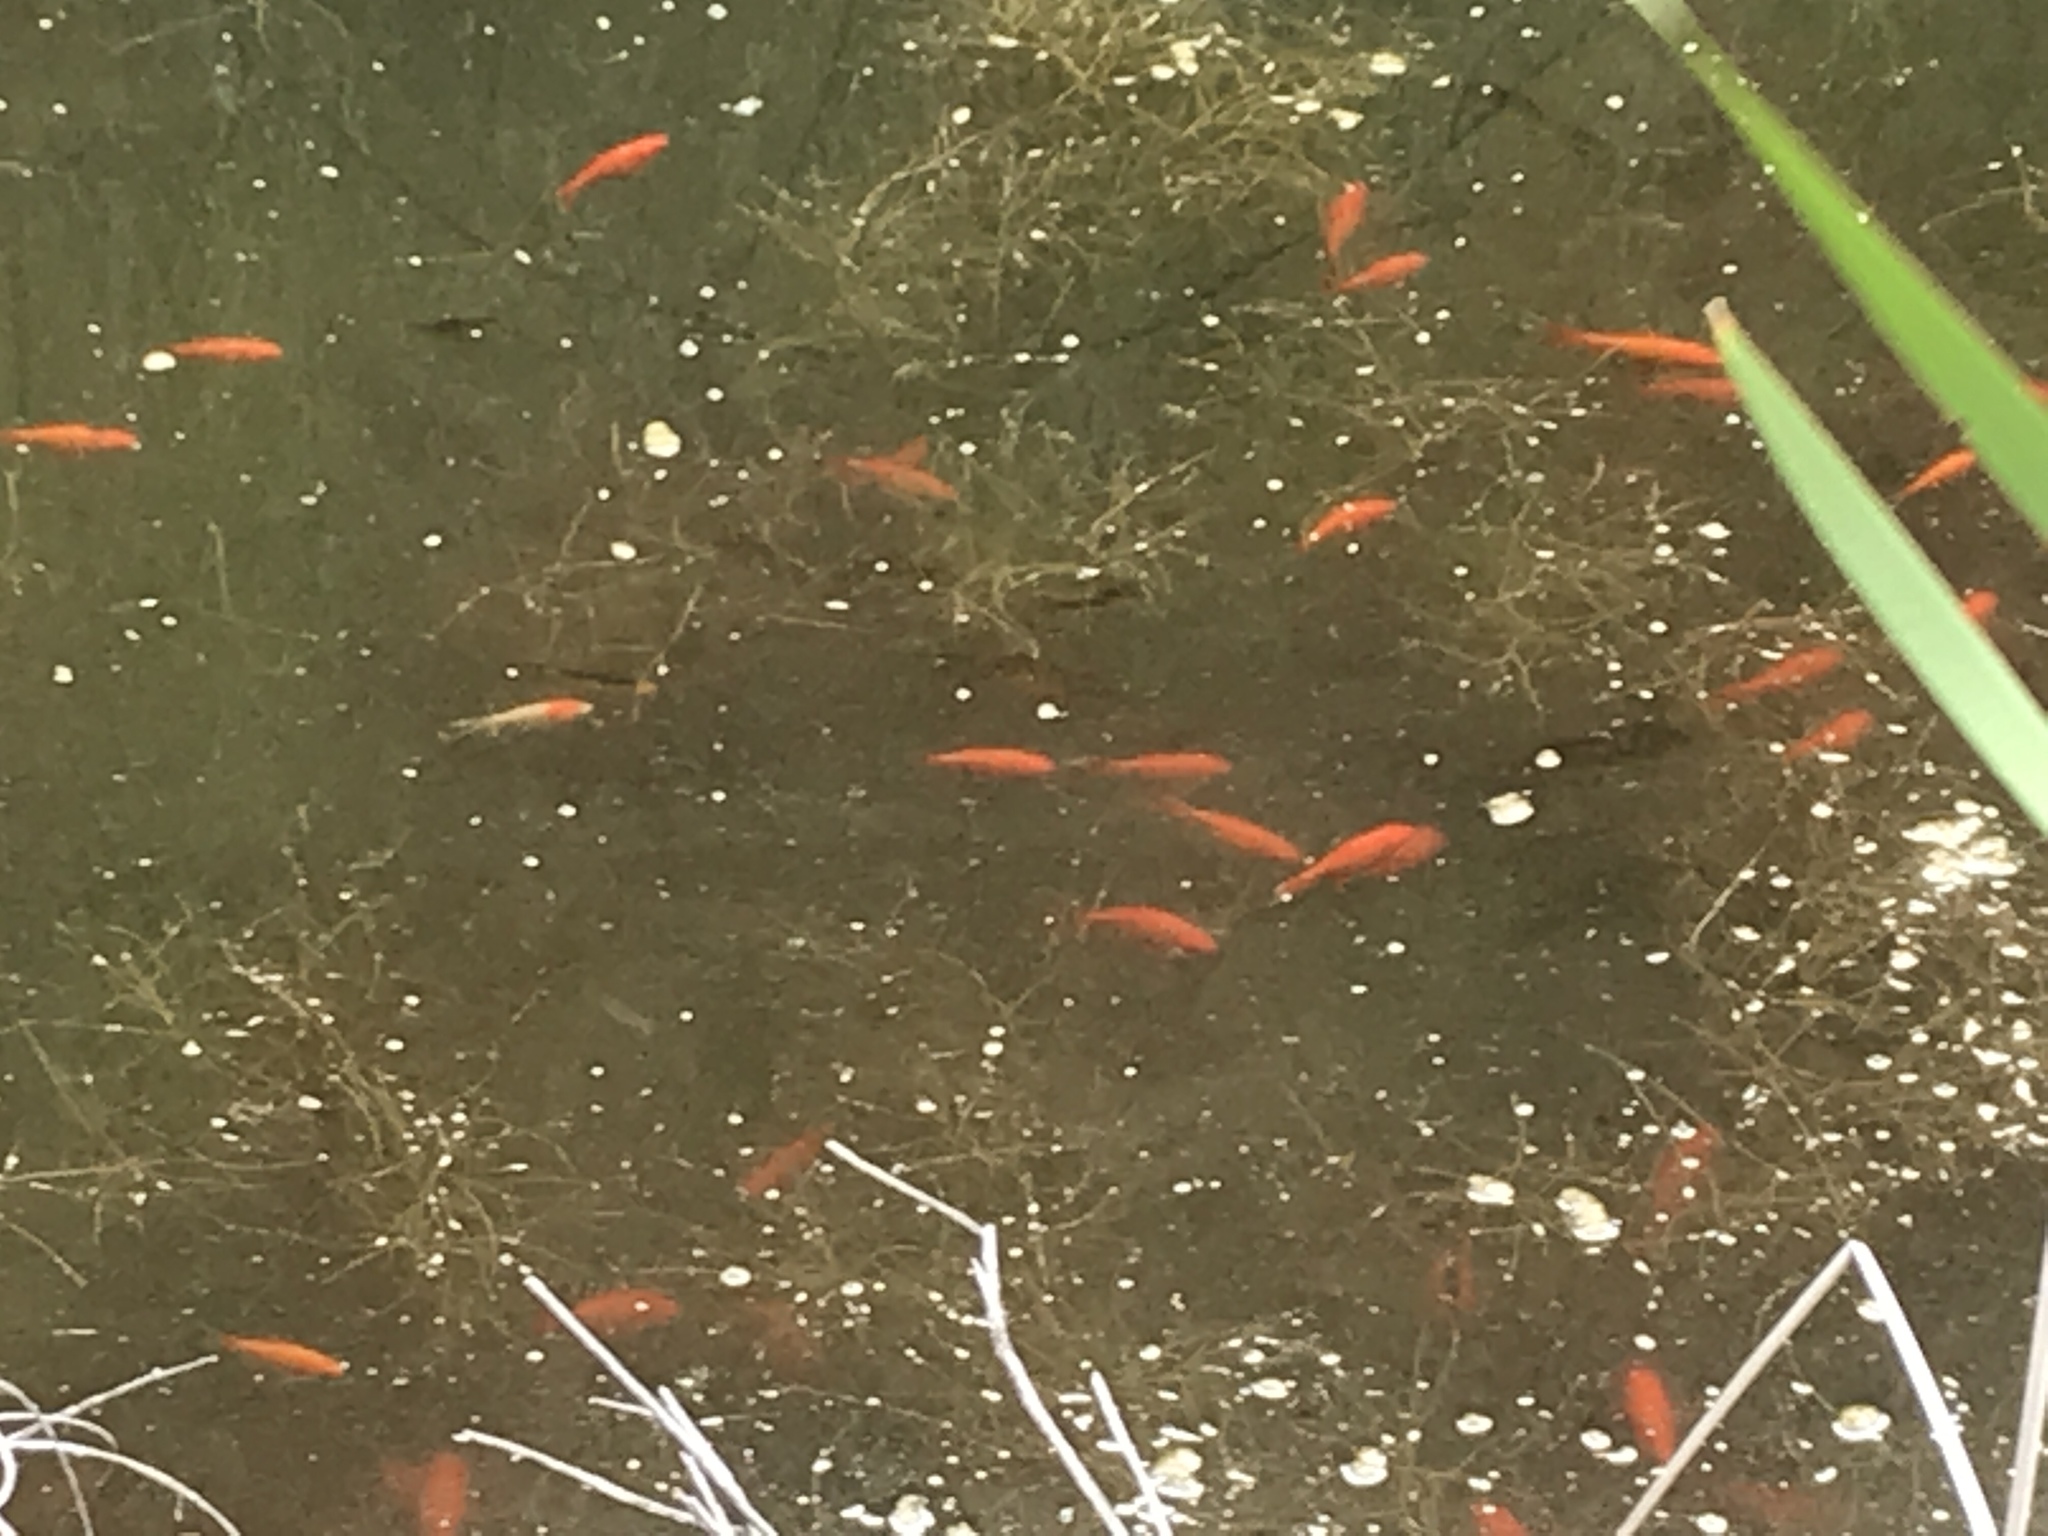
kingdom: Animalia
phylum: Chordata
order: Cypriniformes
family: Cyprinidae
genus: Carassius
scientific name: Carassius auratus
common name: Goldfish
